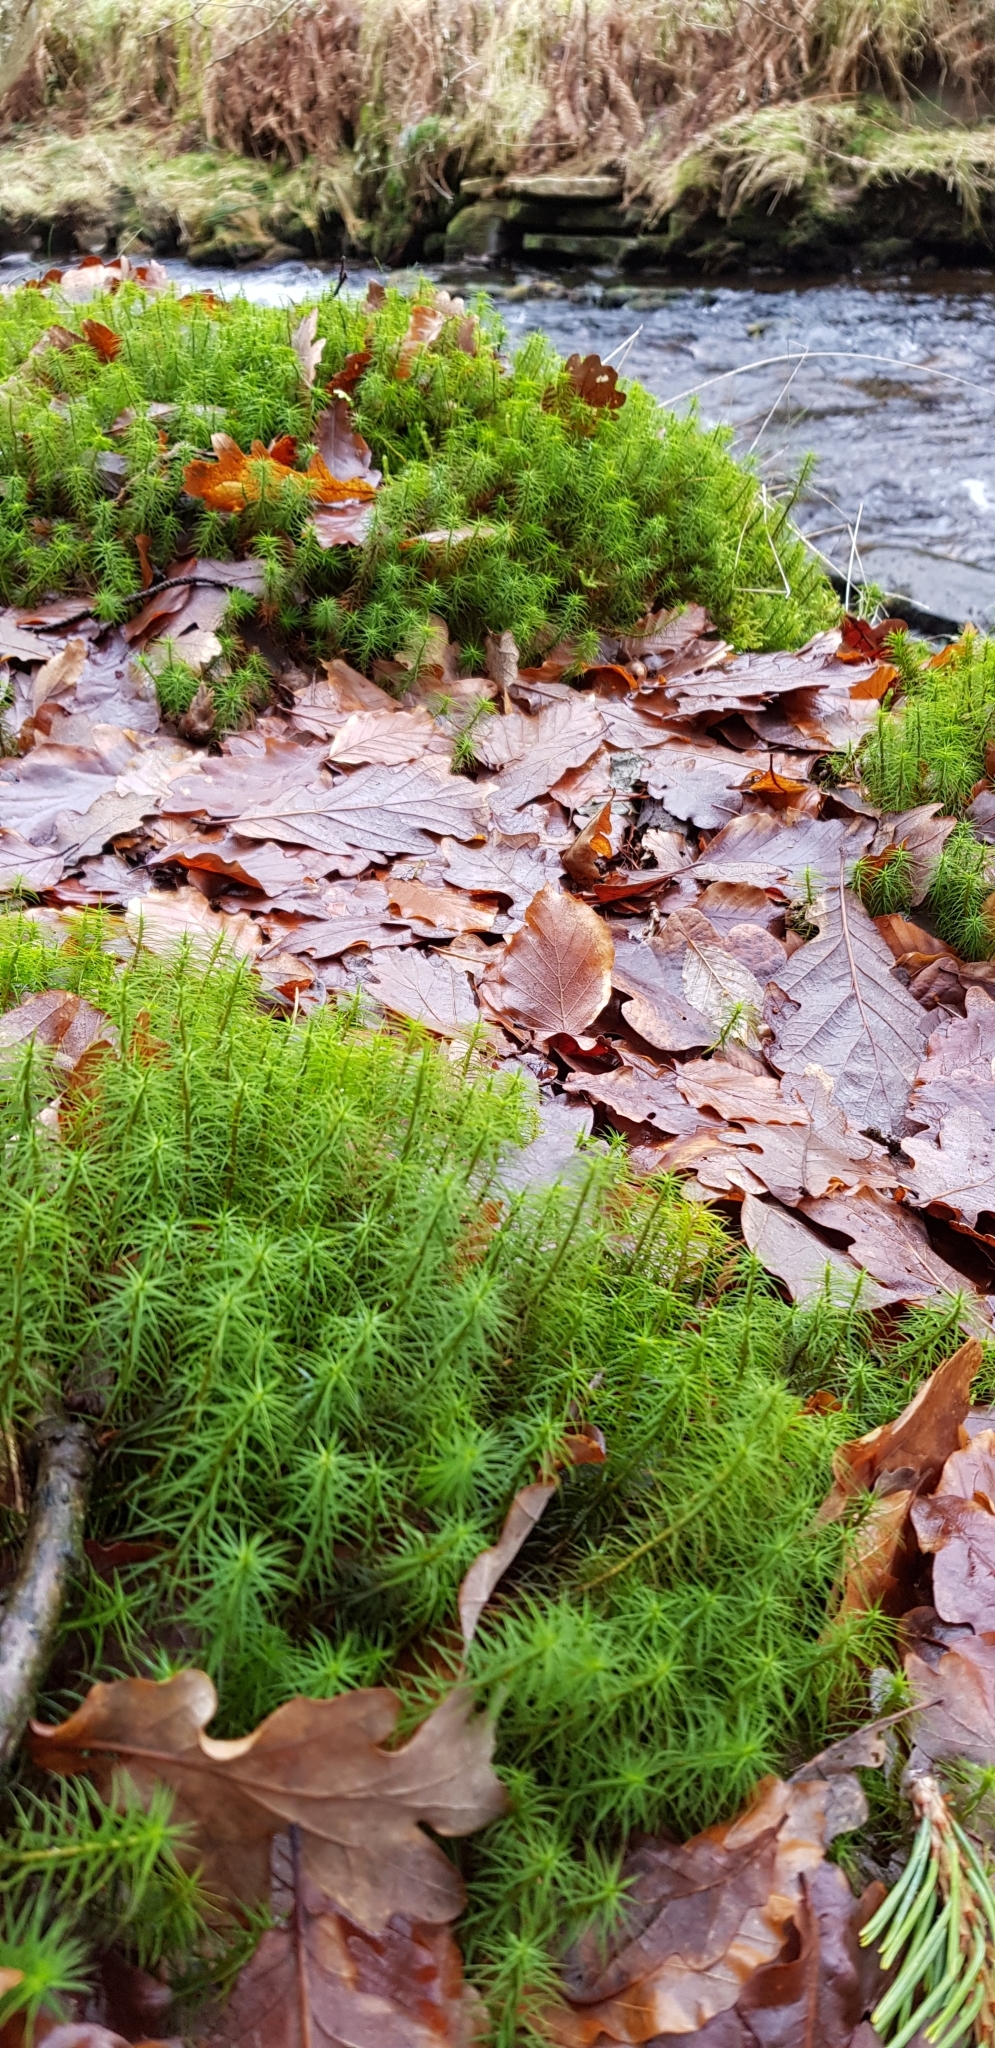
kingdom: Plantae
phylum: Bryophyta
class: Polytrichopsida
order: Polytrichales
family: Polytrichaceae
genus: Polytrichum
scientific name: Polytrichum commune
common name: Common haircap
